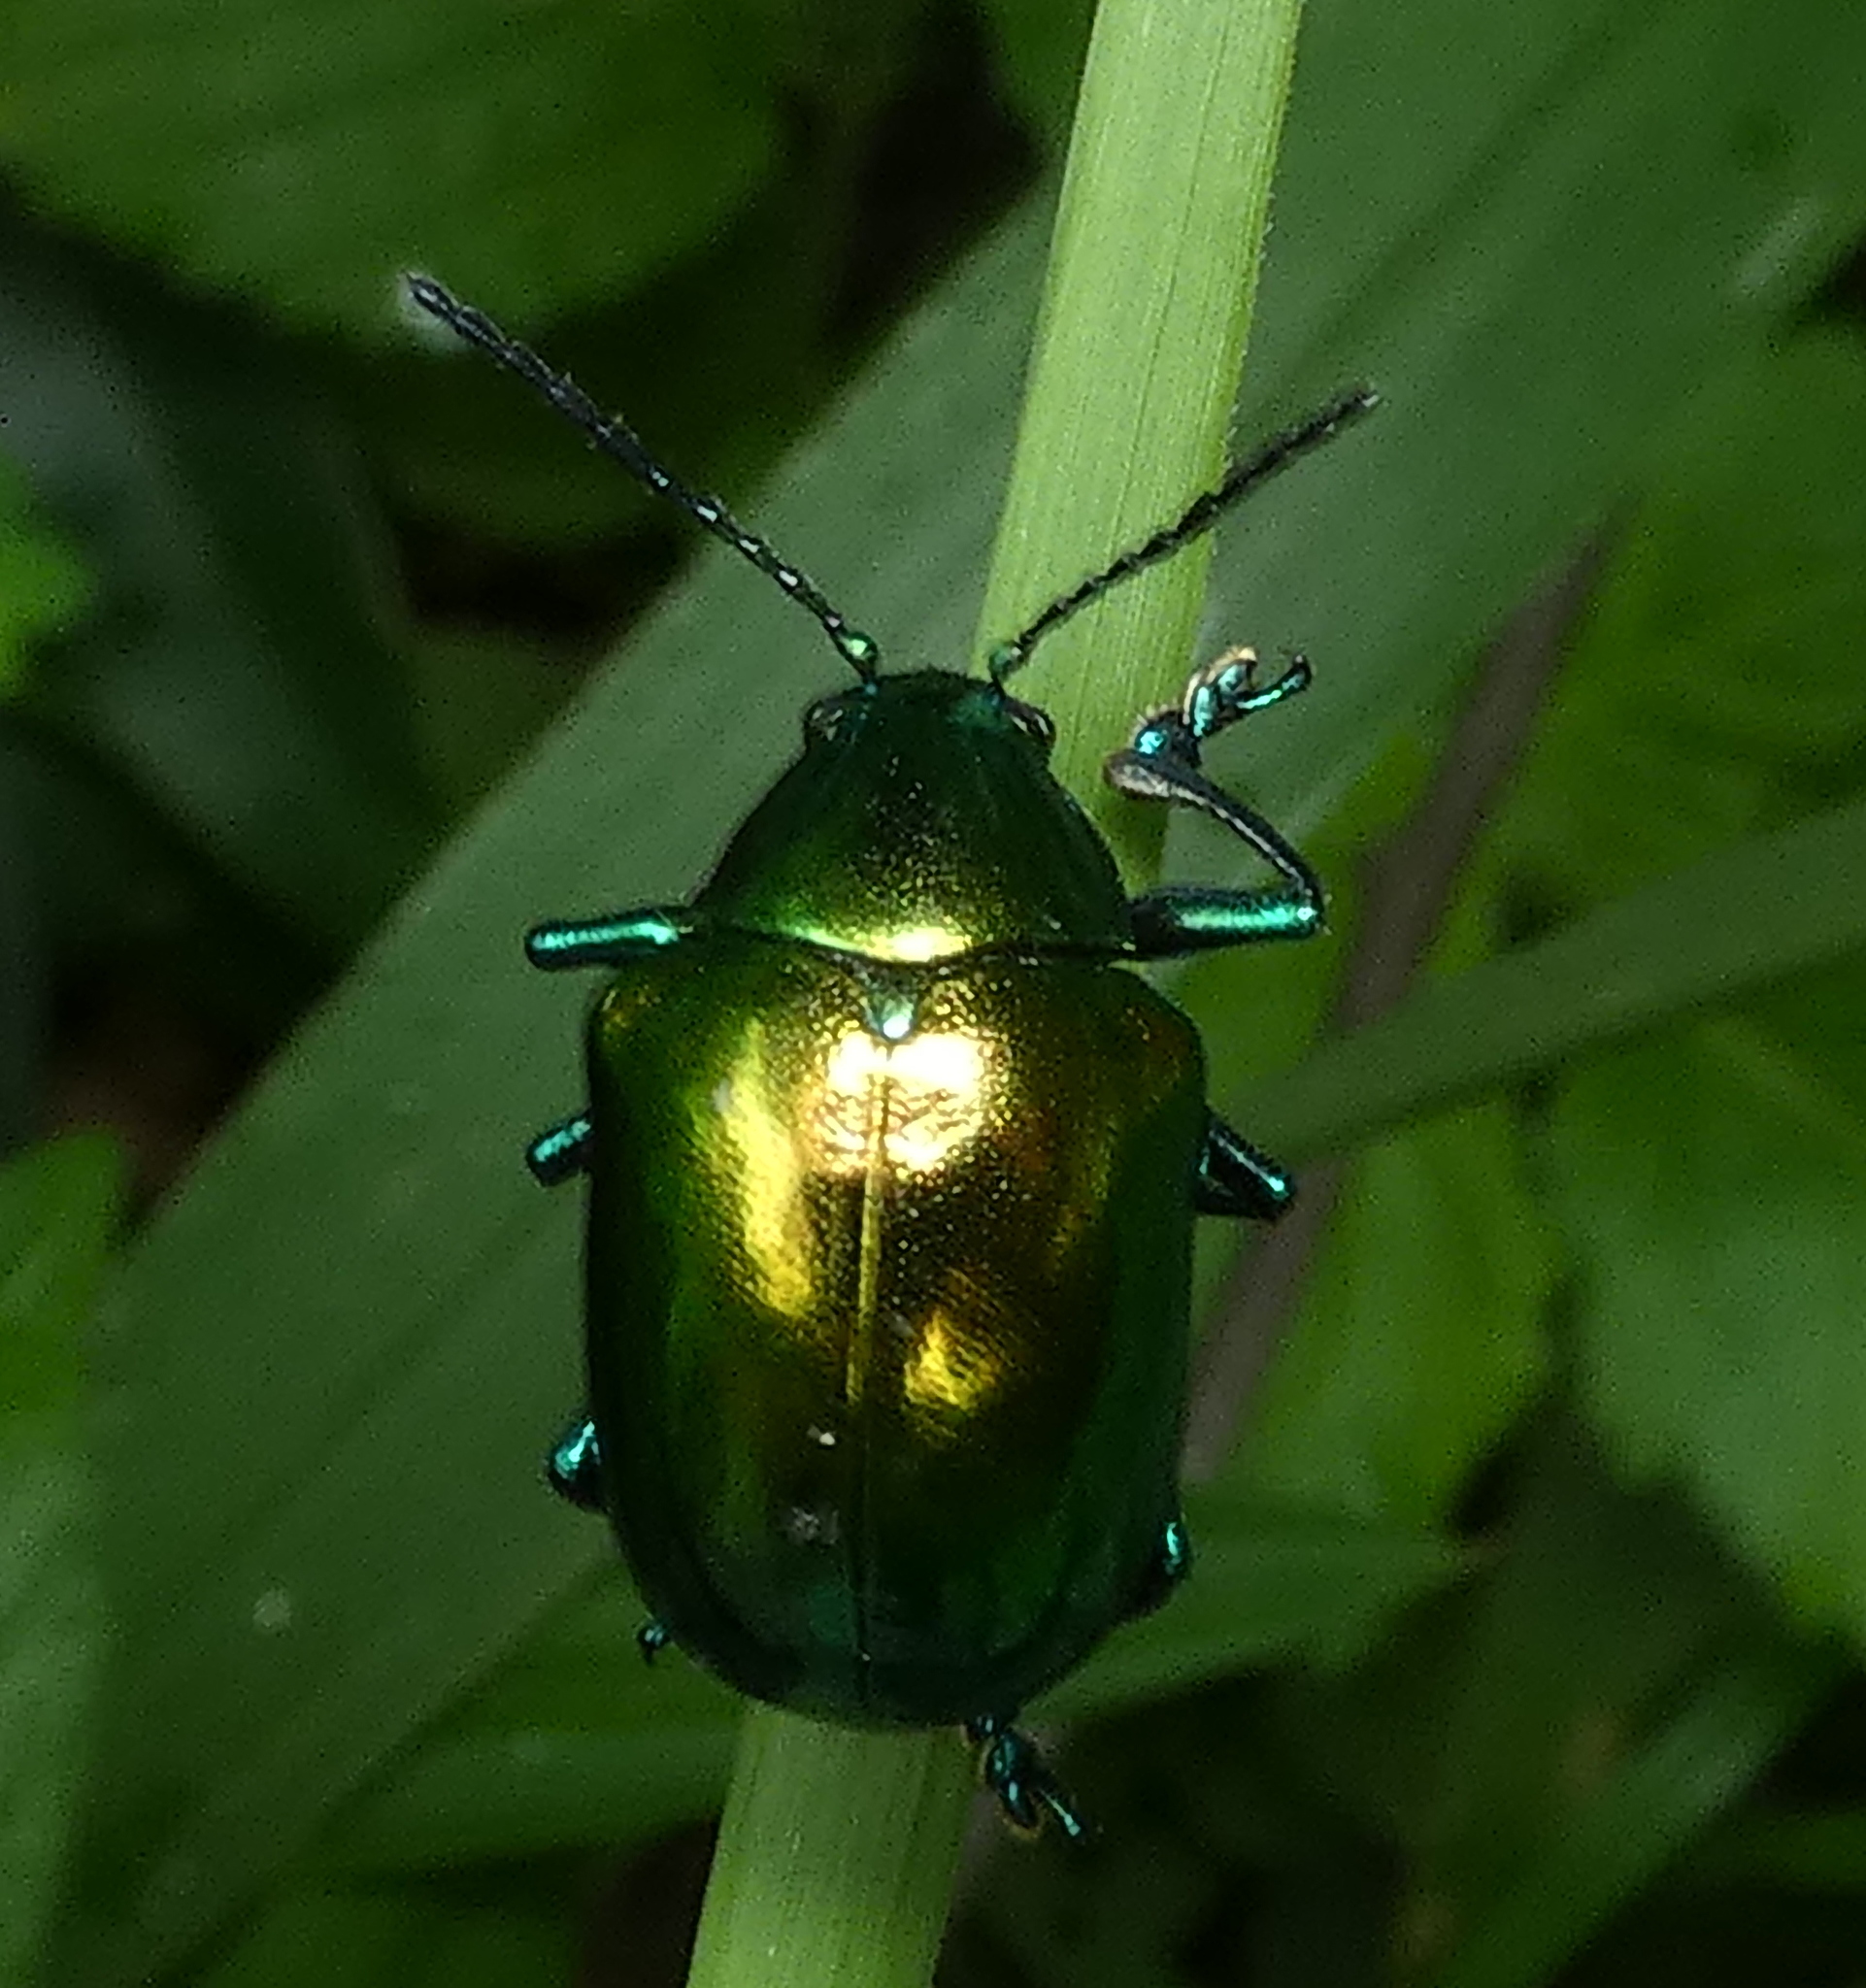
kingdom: Animalia
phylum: Arthropoda
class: Insecta
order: Coleoptera
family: Chrysomelidae
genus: Eumolpus
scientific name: Eumolpus
